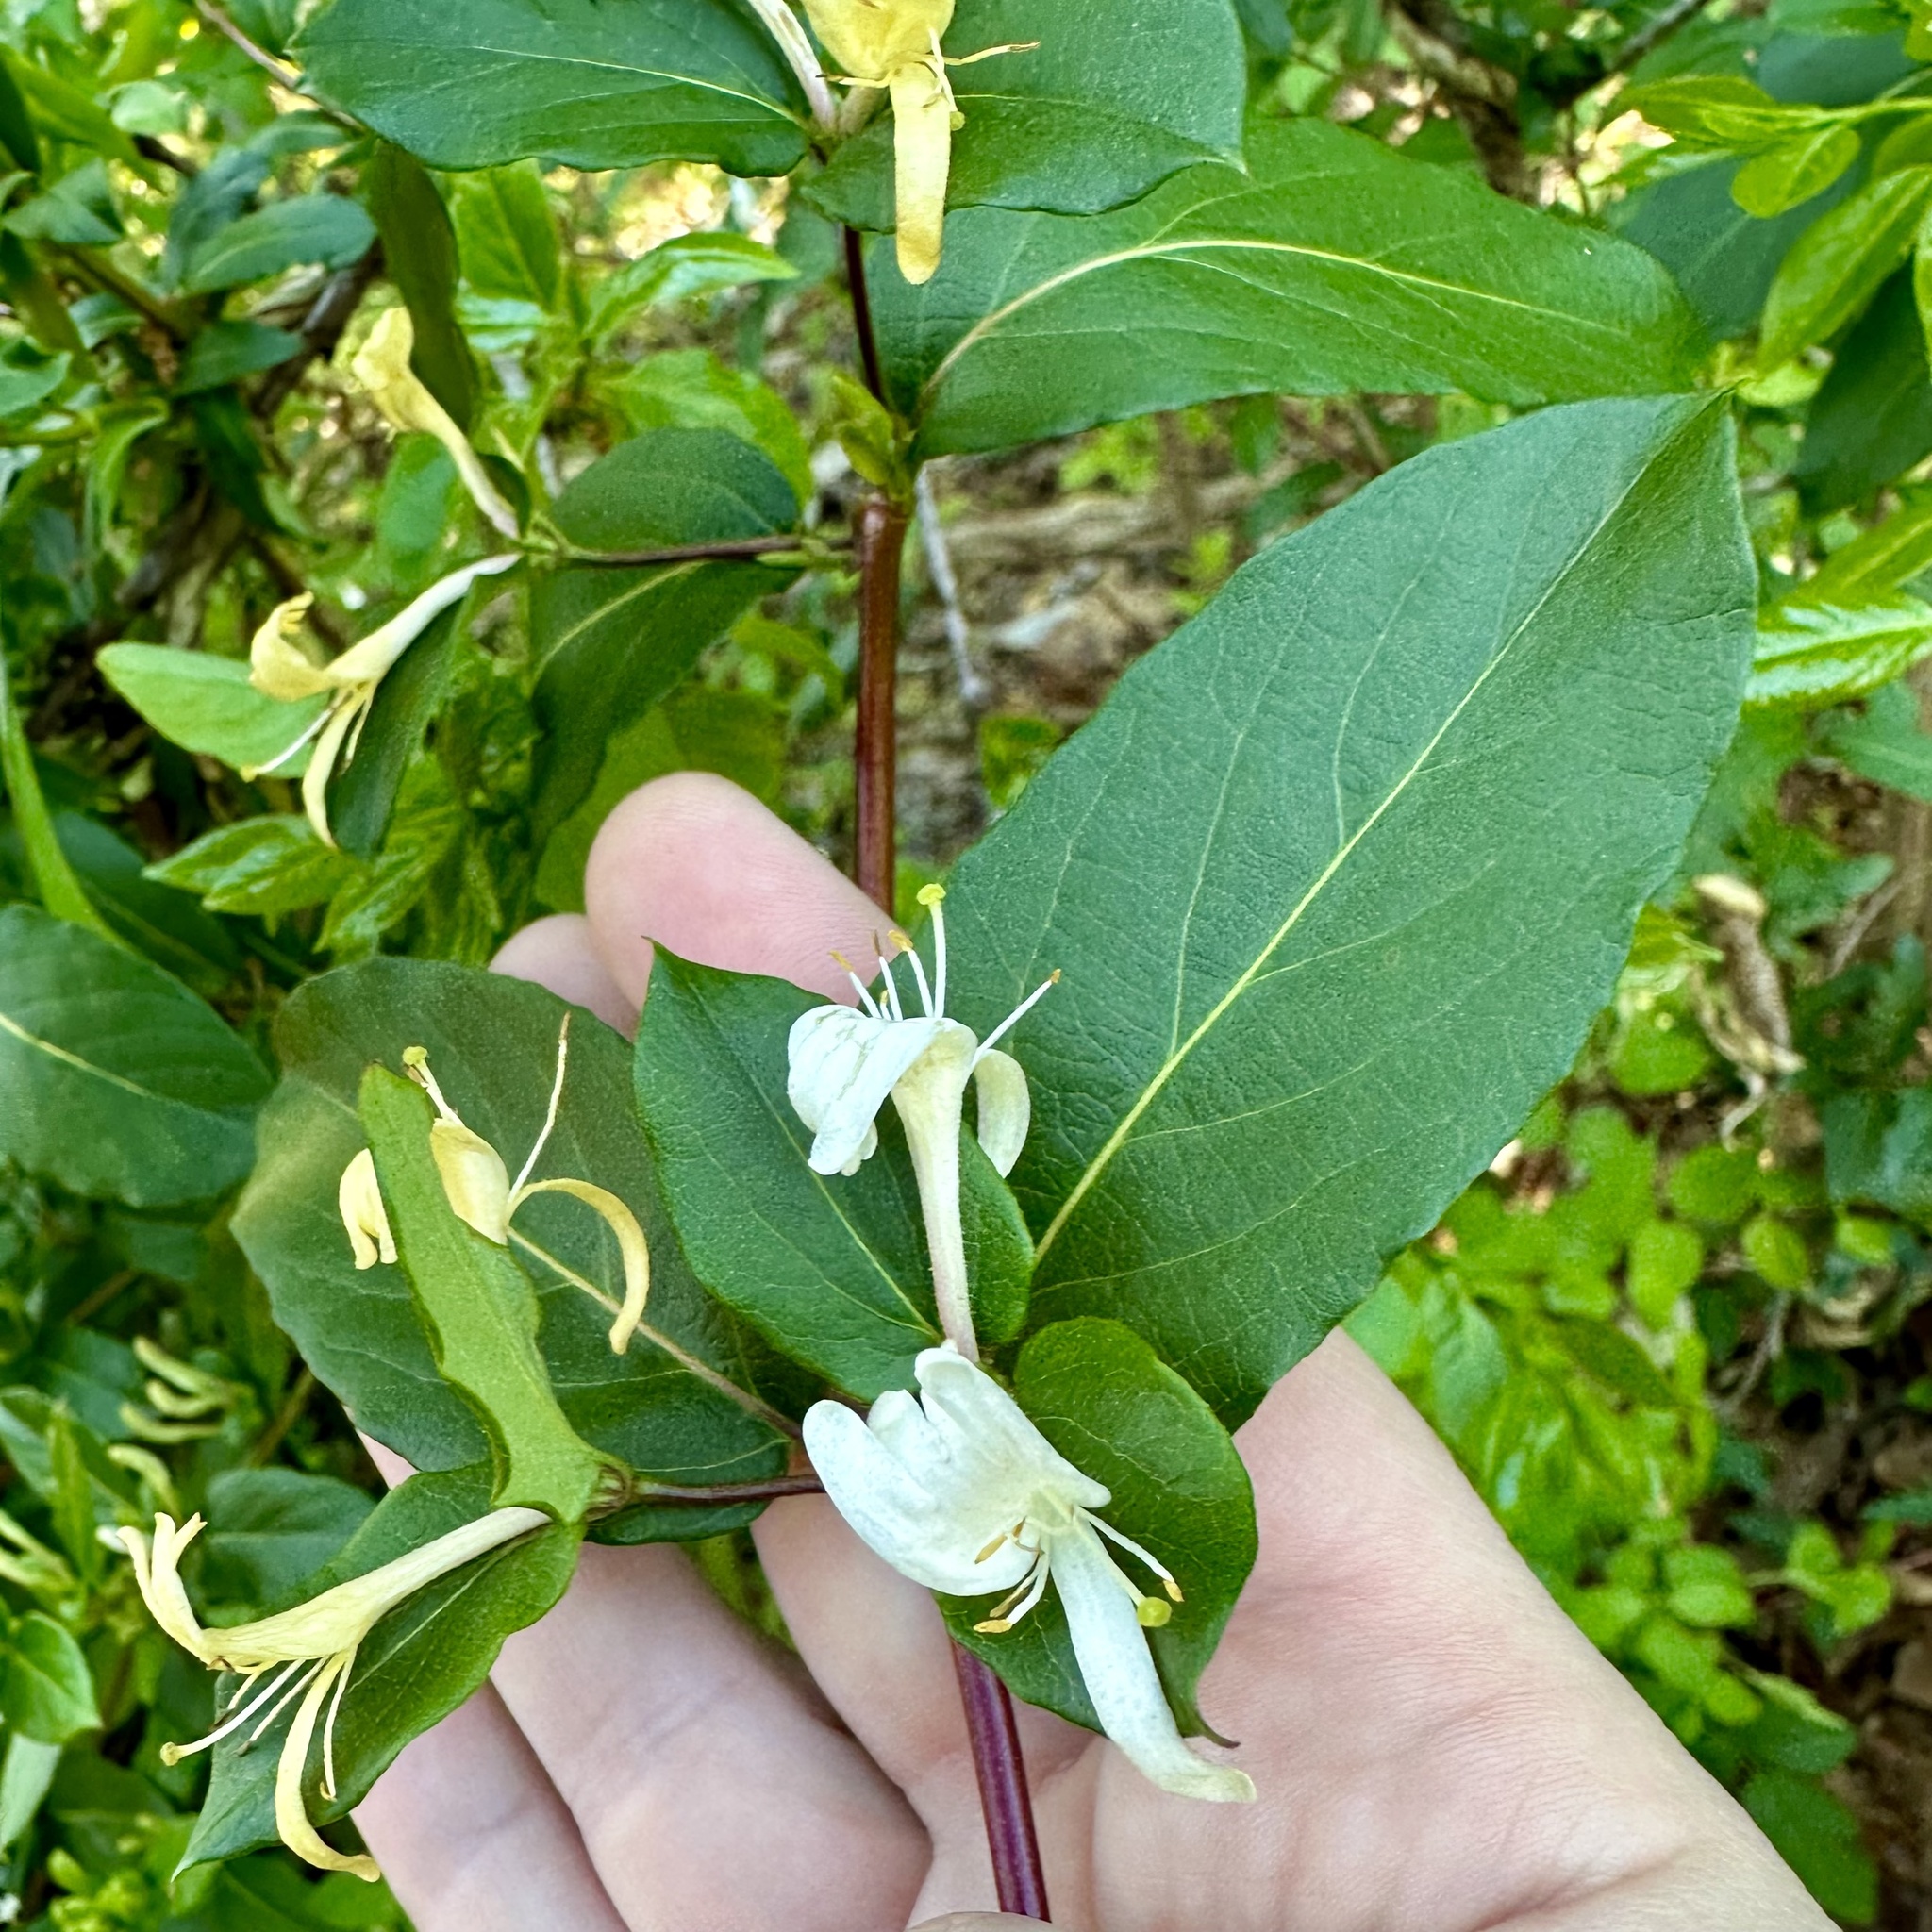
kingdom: Plantae
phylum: Tracheophyta
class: Magnoliopsida
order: Dipsacales
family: Caprifoliaceae
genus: Lonicera
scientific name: Lonicera japonica
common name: Japanese honeysuckle
